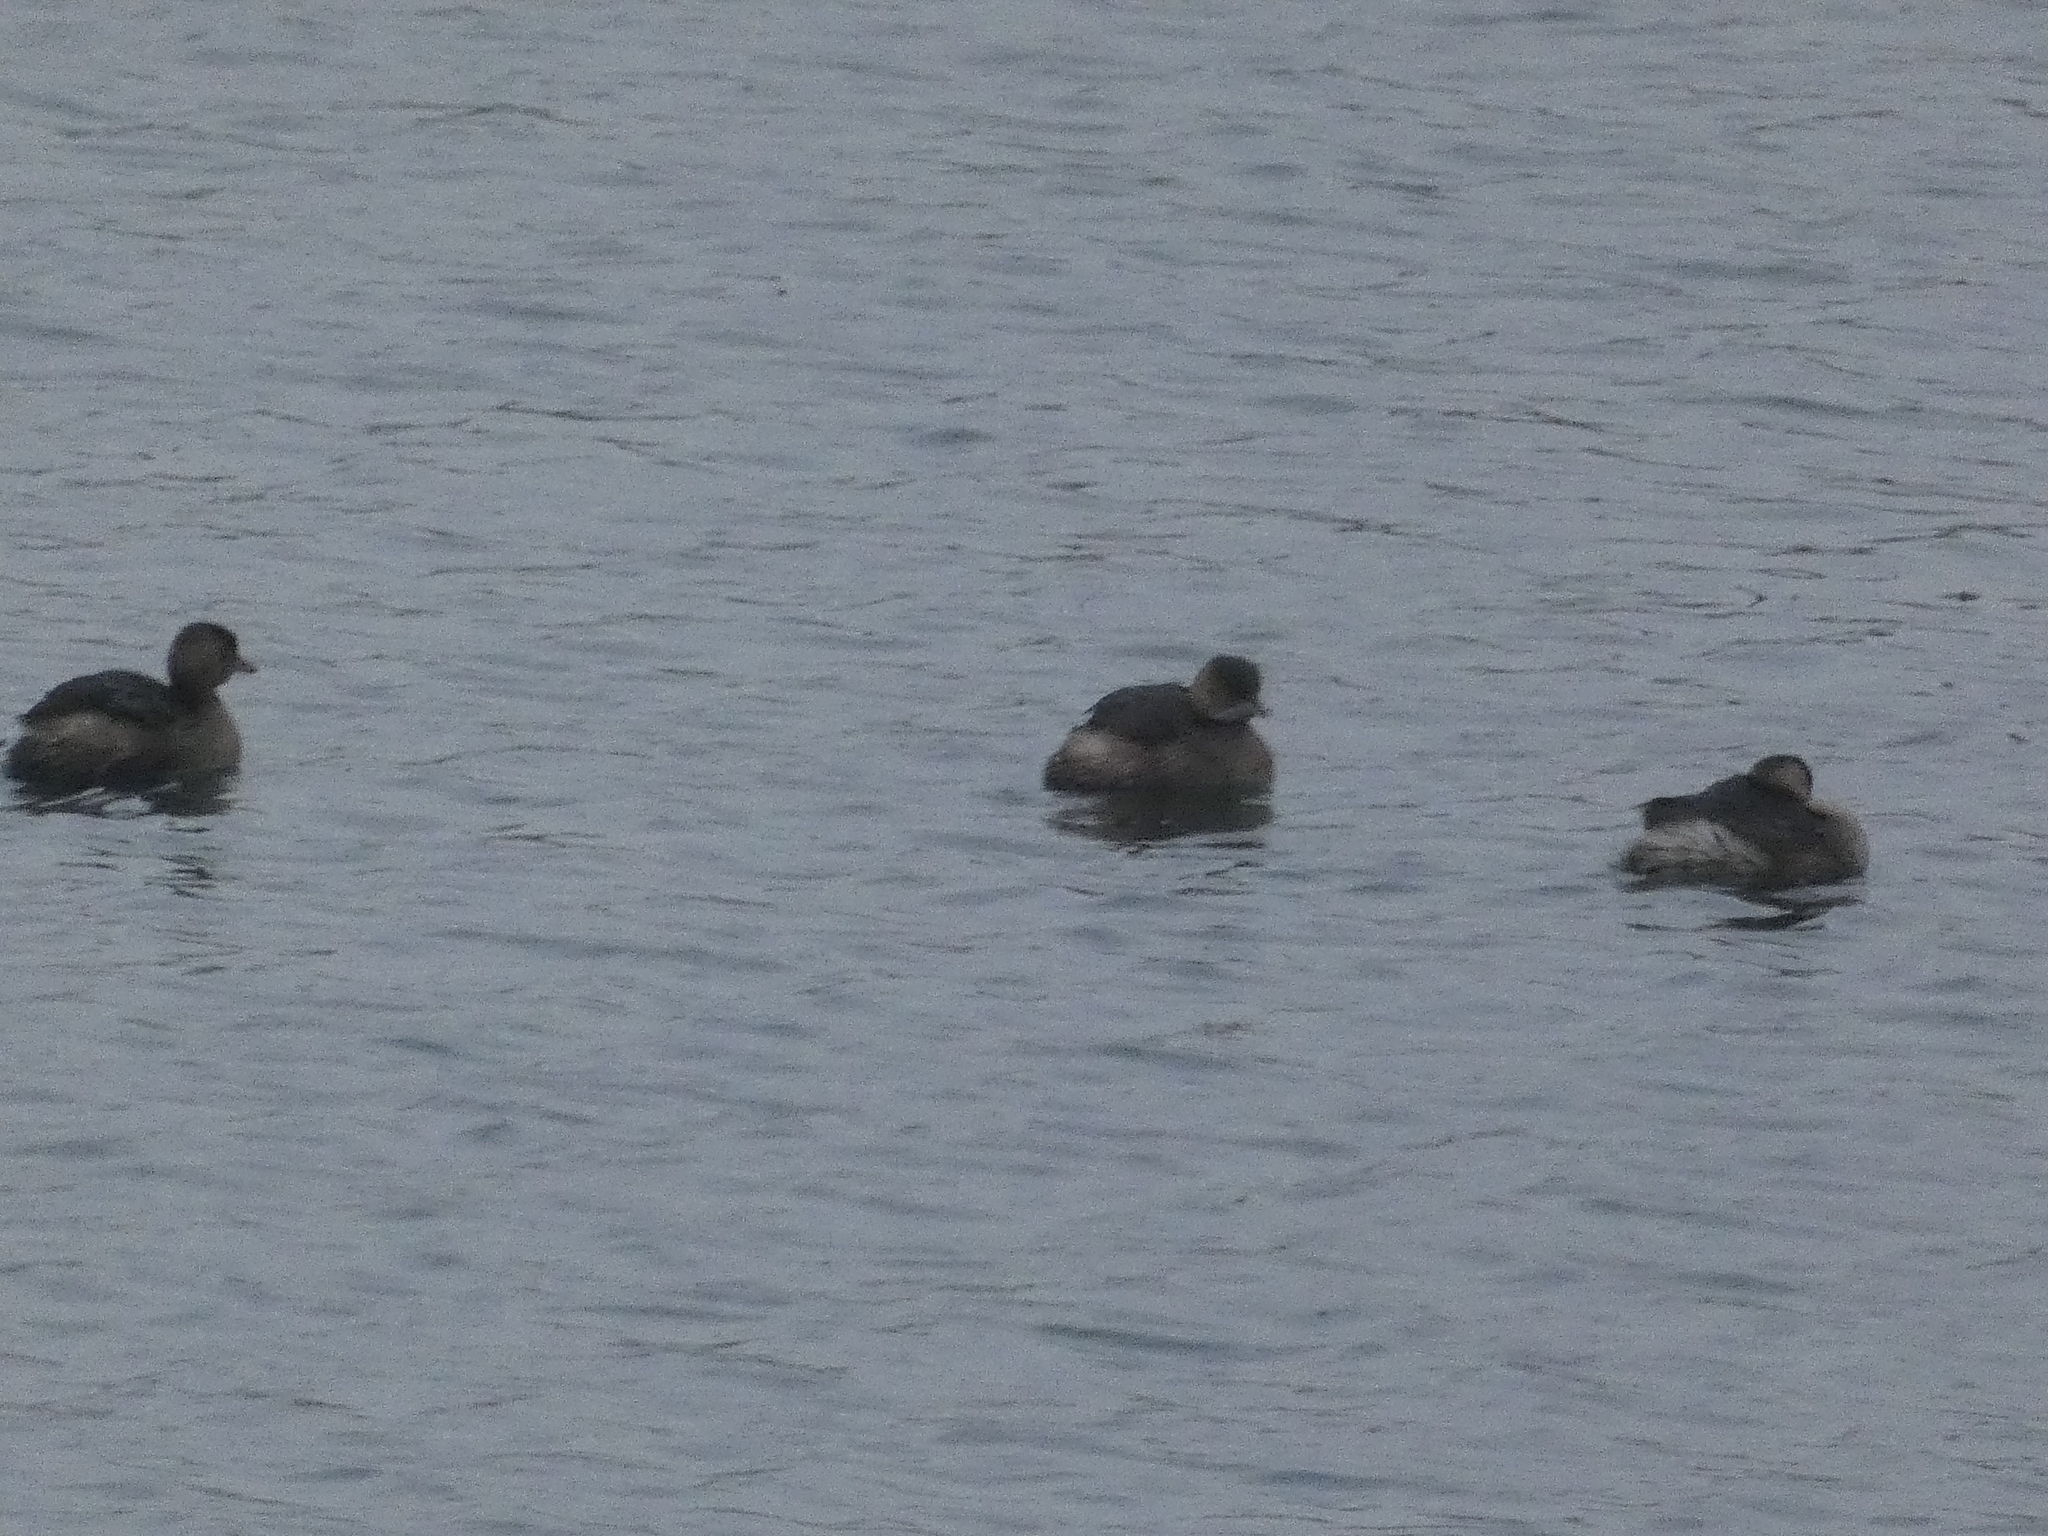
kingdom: Animalia
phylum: Chordata
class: Aves
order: Podicipediformes
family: Podicipedidae
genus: Tachybaptus
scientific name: Tachybaptus ruficollis
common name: Little grebe
